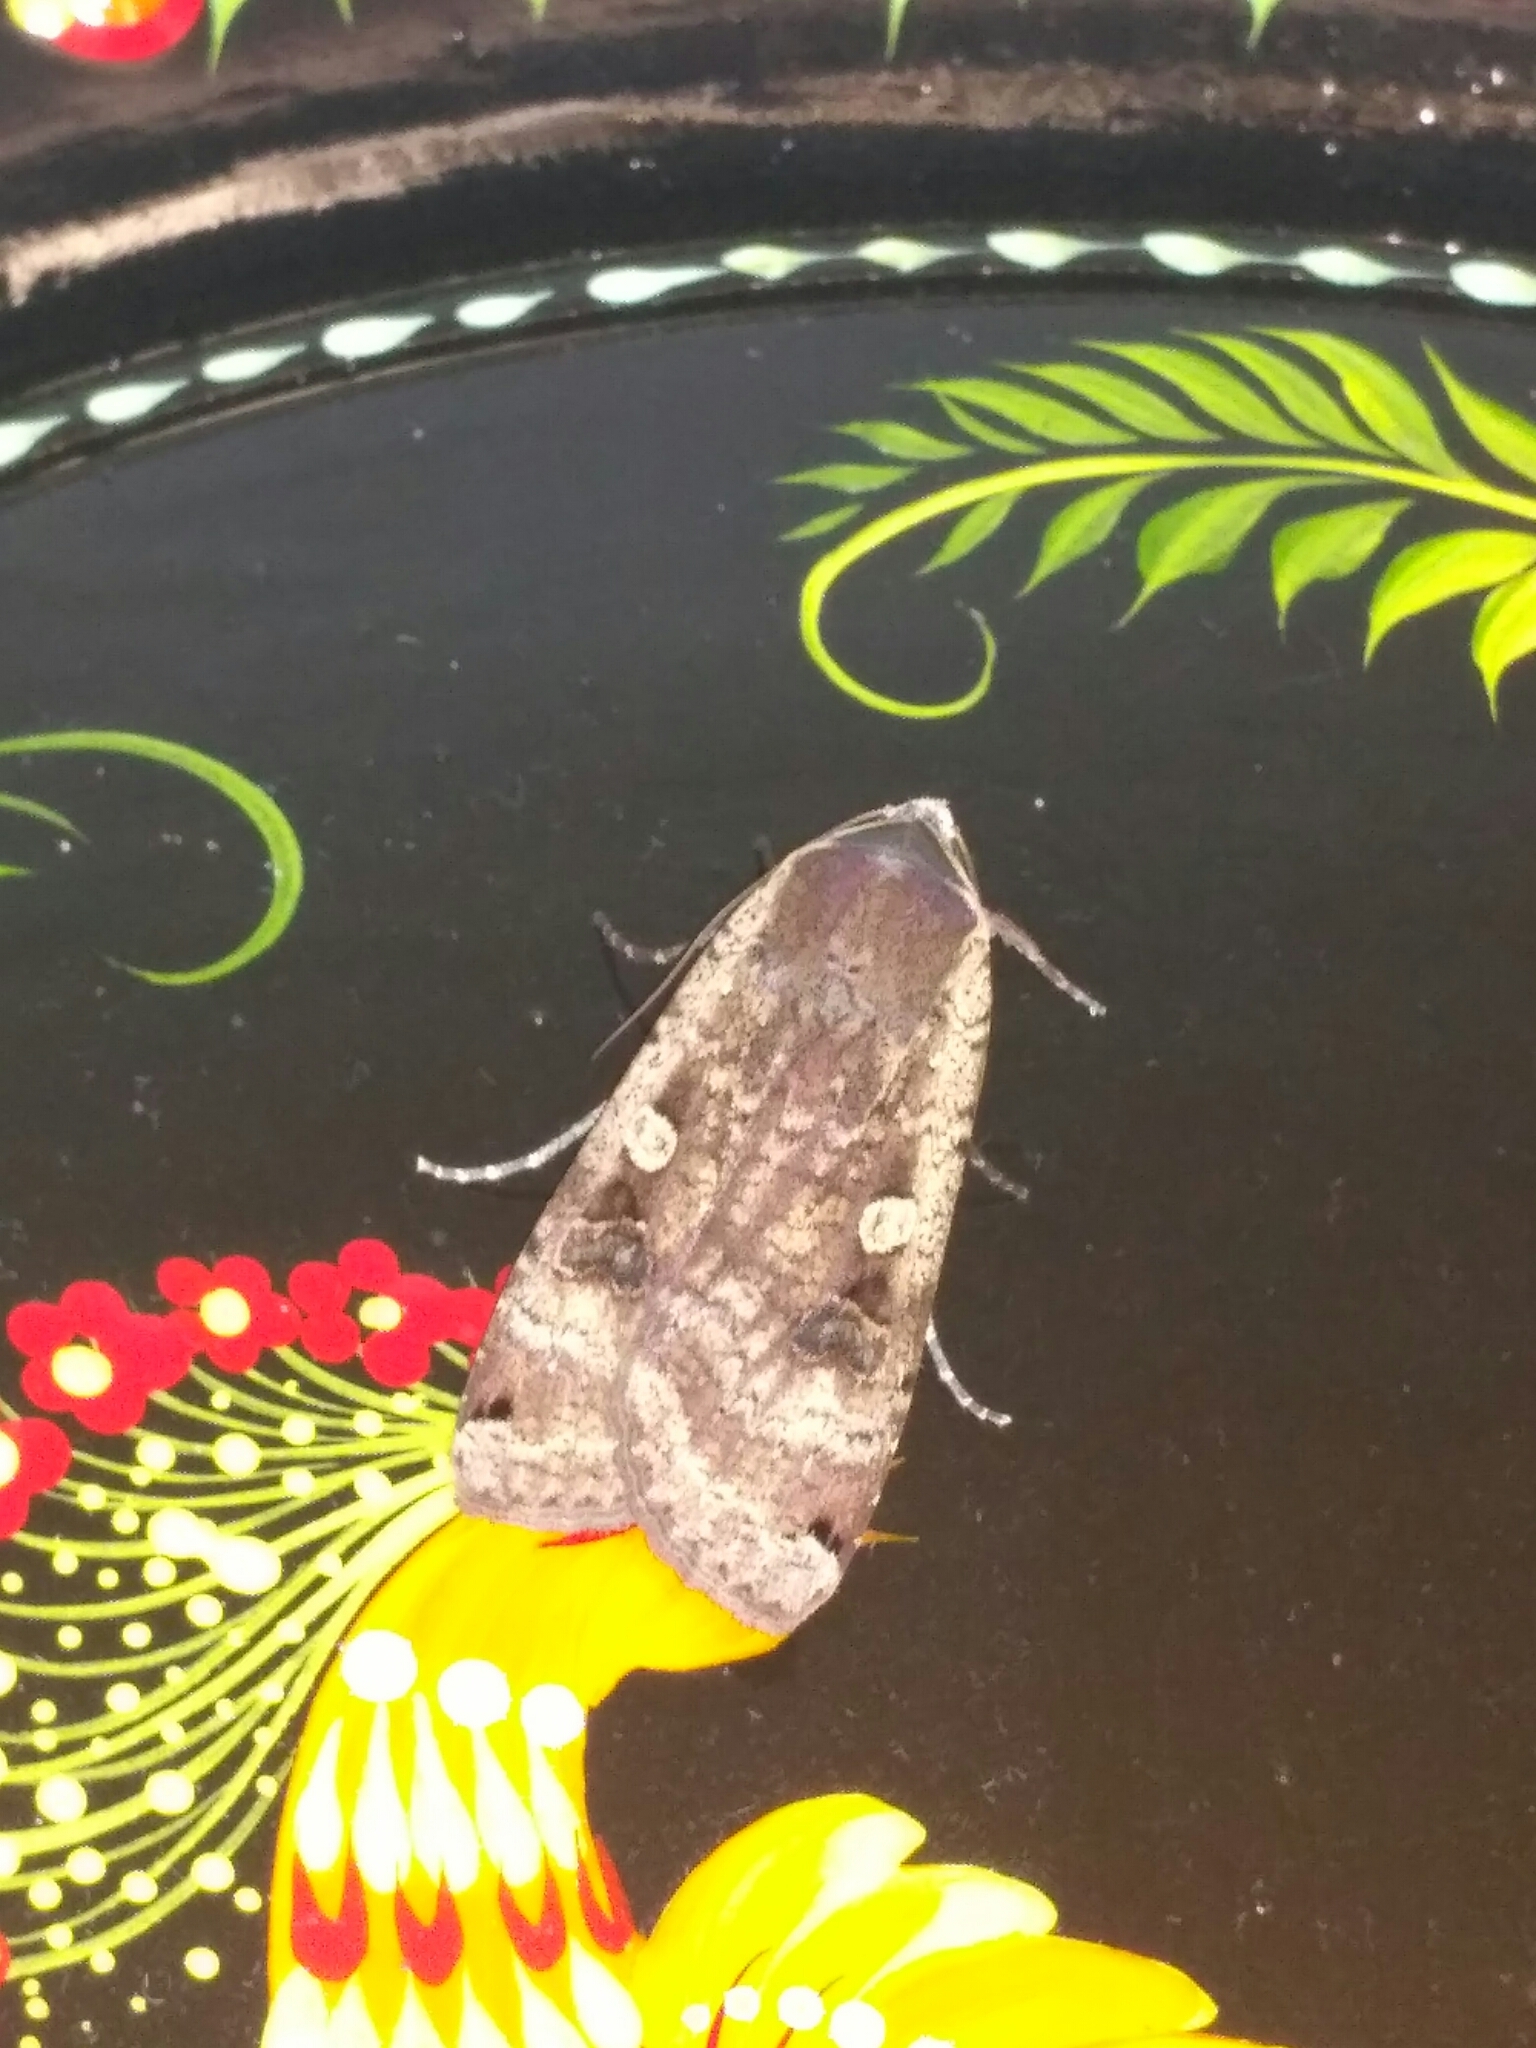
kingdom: Animalia
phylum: Arthropoda
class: Insecta
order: Lepidoptera
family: Noctuidae
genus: Noctua
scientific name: Noctua pronuba
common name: Large yellow underwing
